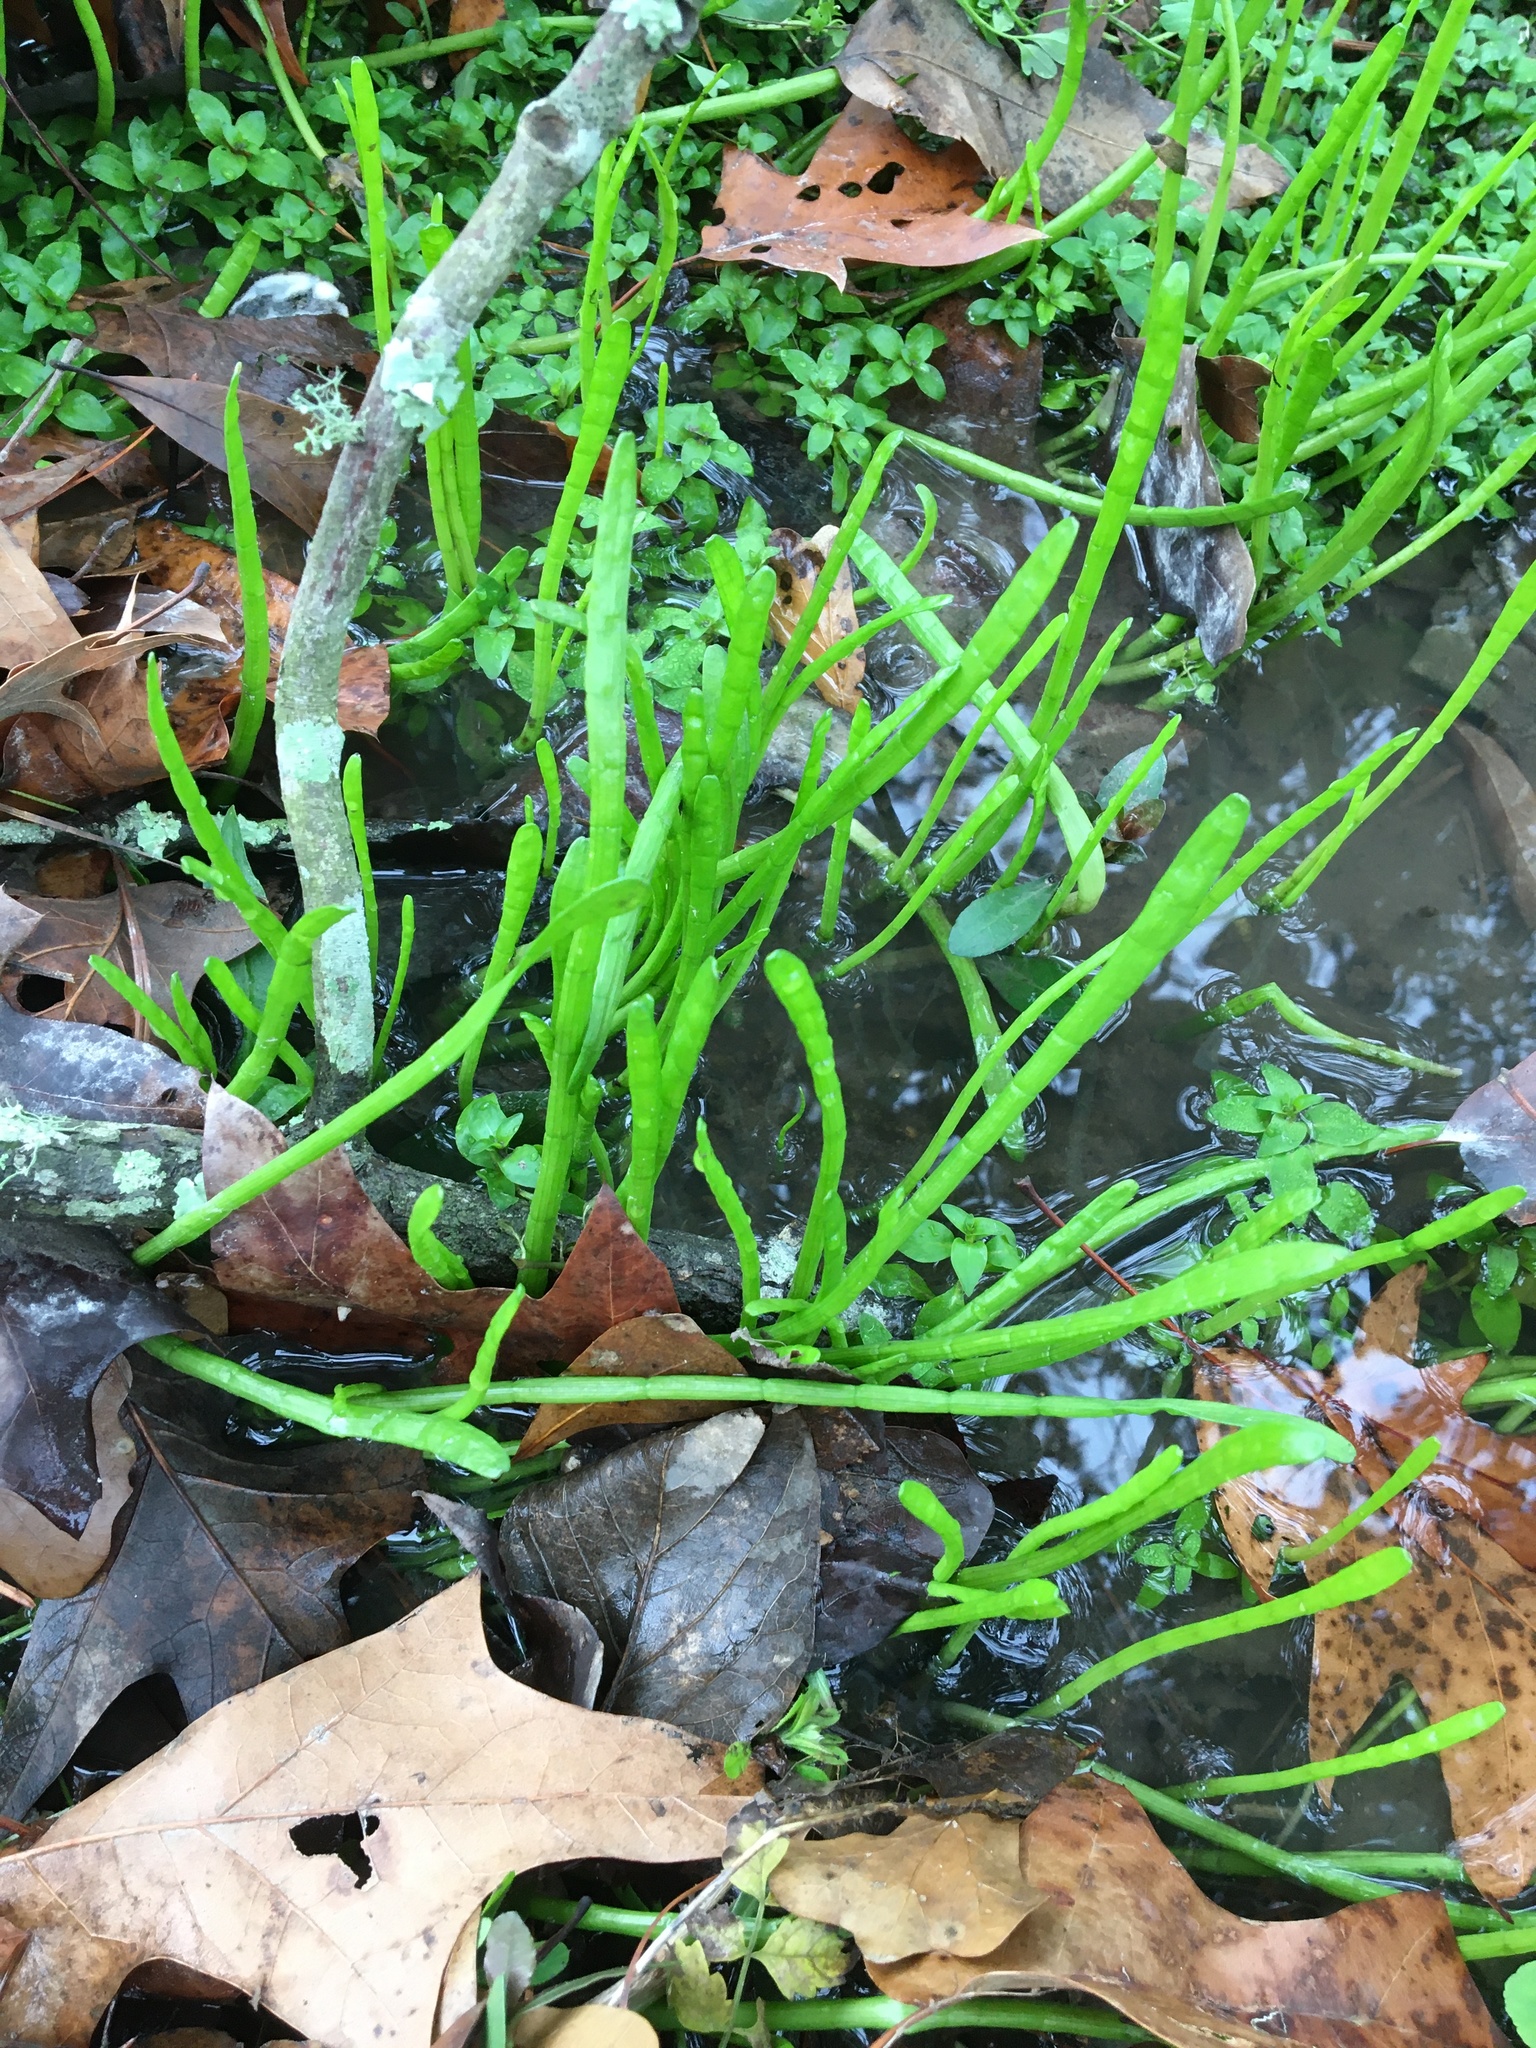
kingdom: Plantae
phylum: Tracheophyta
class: Magnoliopsida
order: Apiales
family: Apiaceae
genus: Lilaeopsis
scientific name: Lilaeopsis carolinensis
